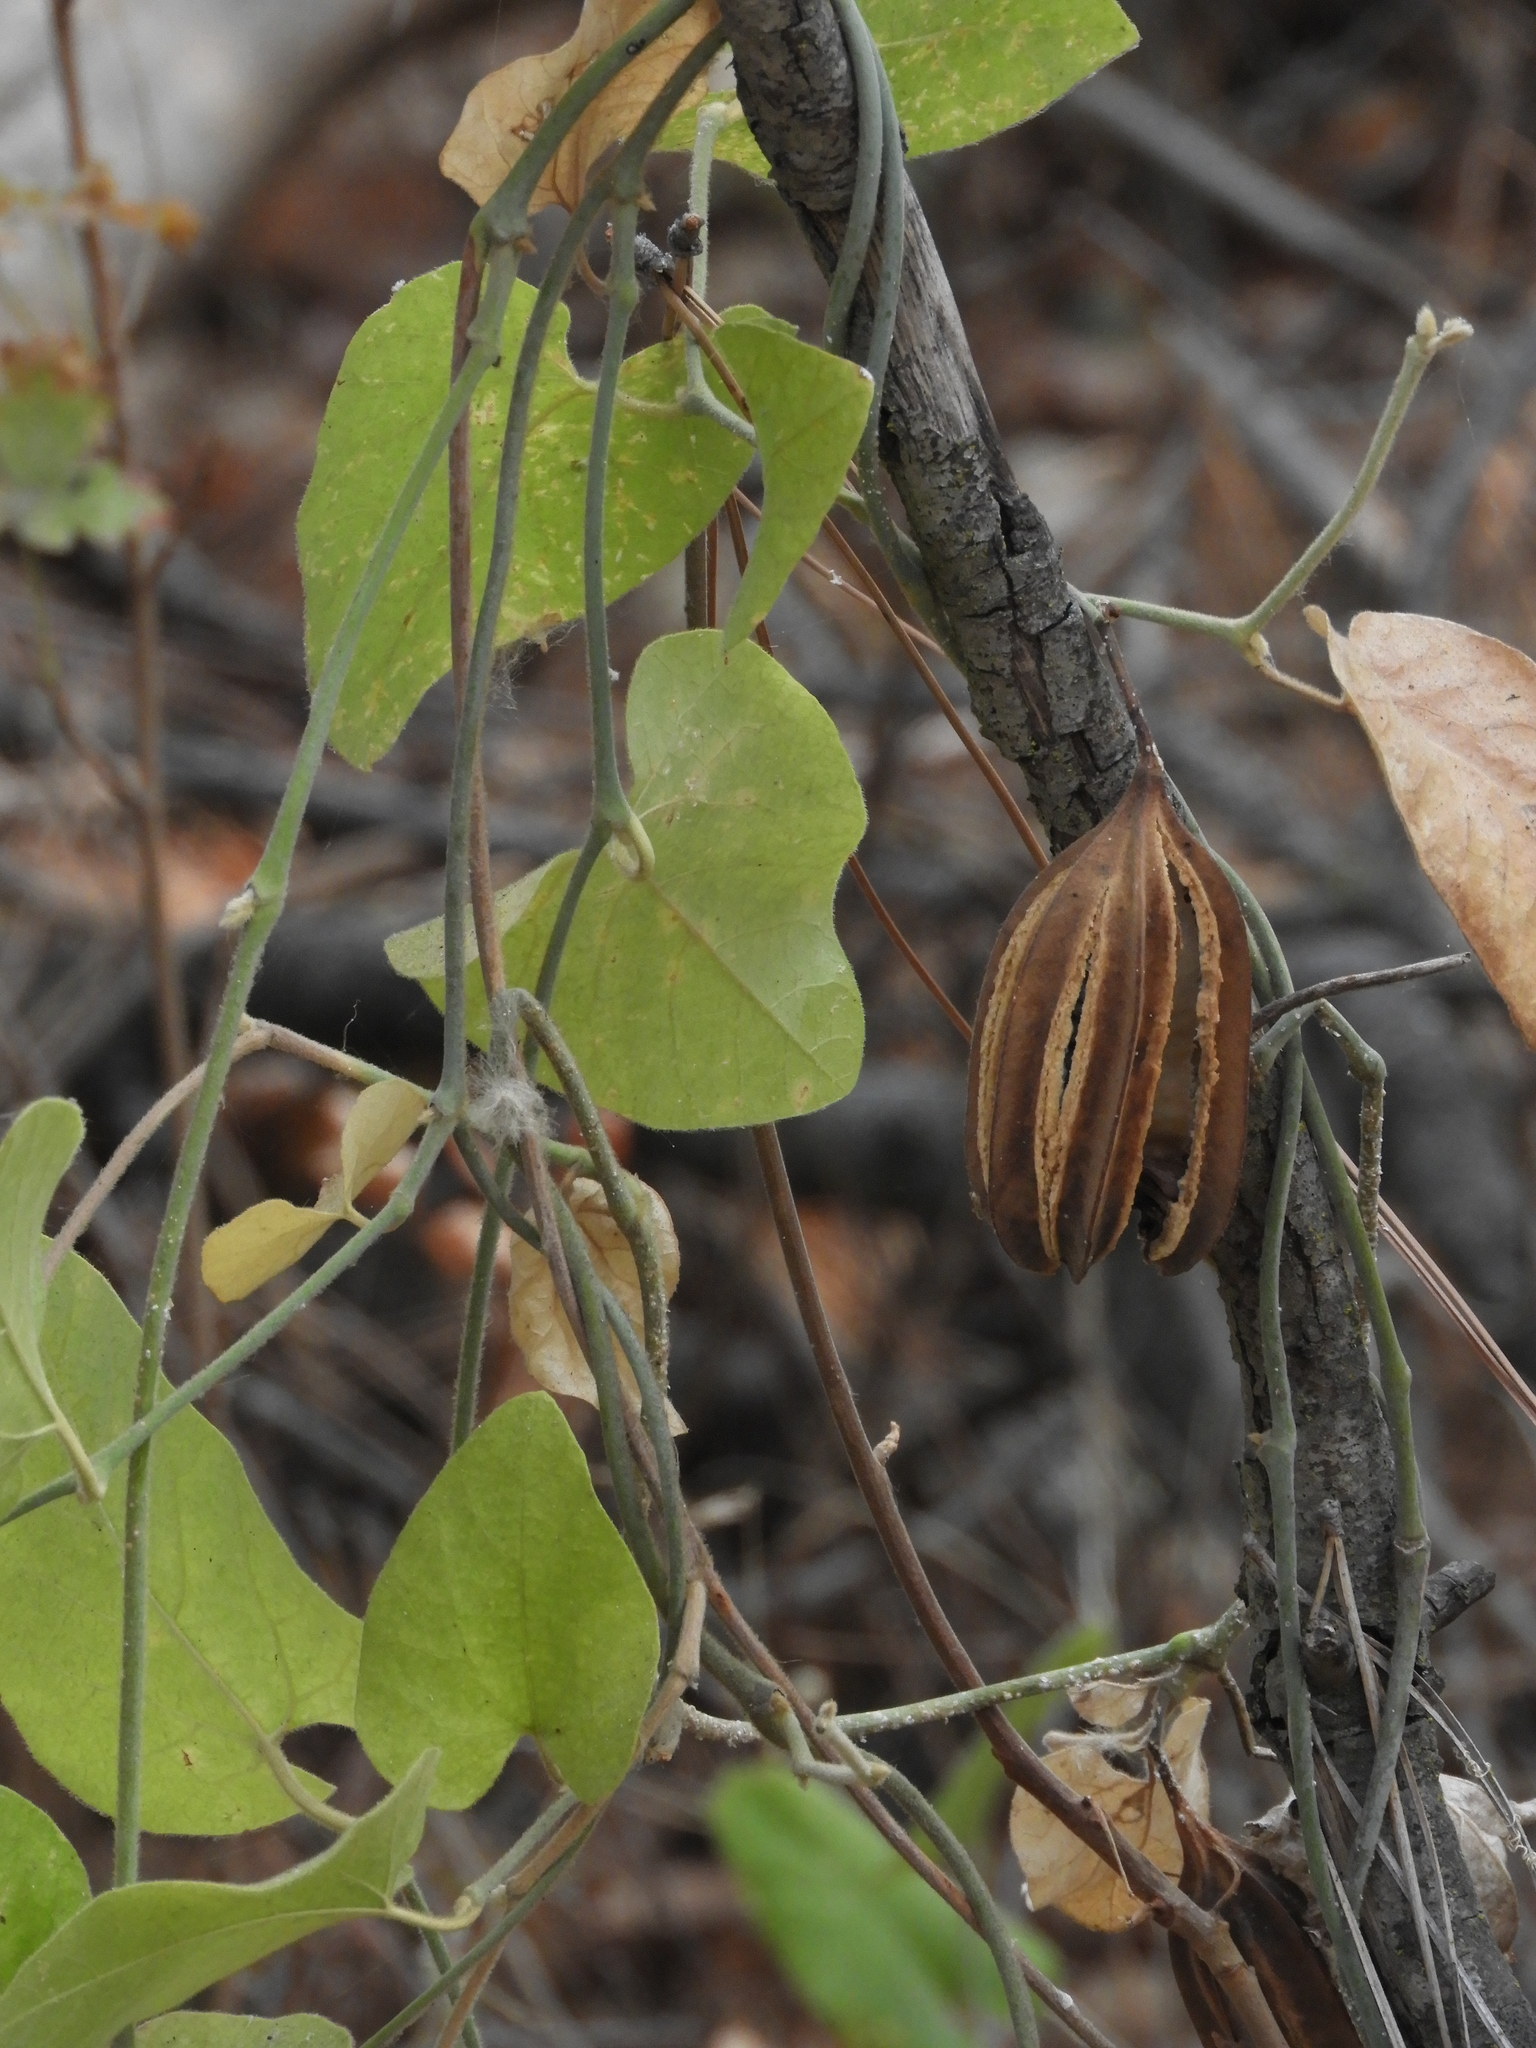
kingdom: Plantae
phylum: Tracheophyta
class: Magnoliopsida
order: Piperales
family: Aristolochiaceae
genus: Isotrema
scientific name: Isotrema californicum
